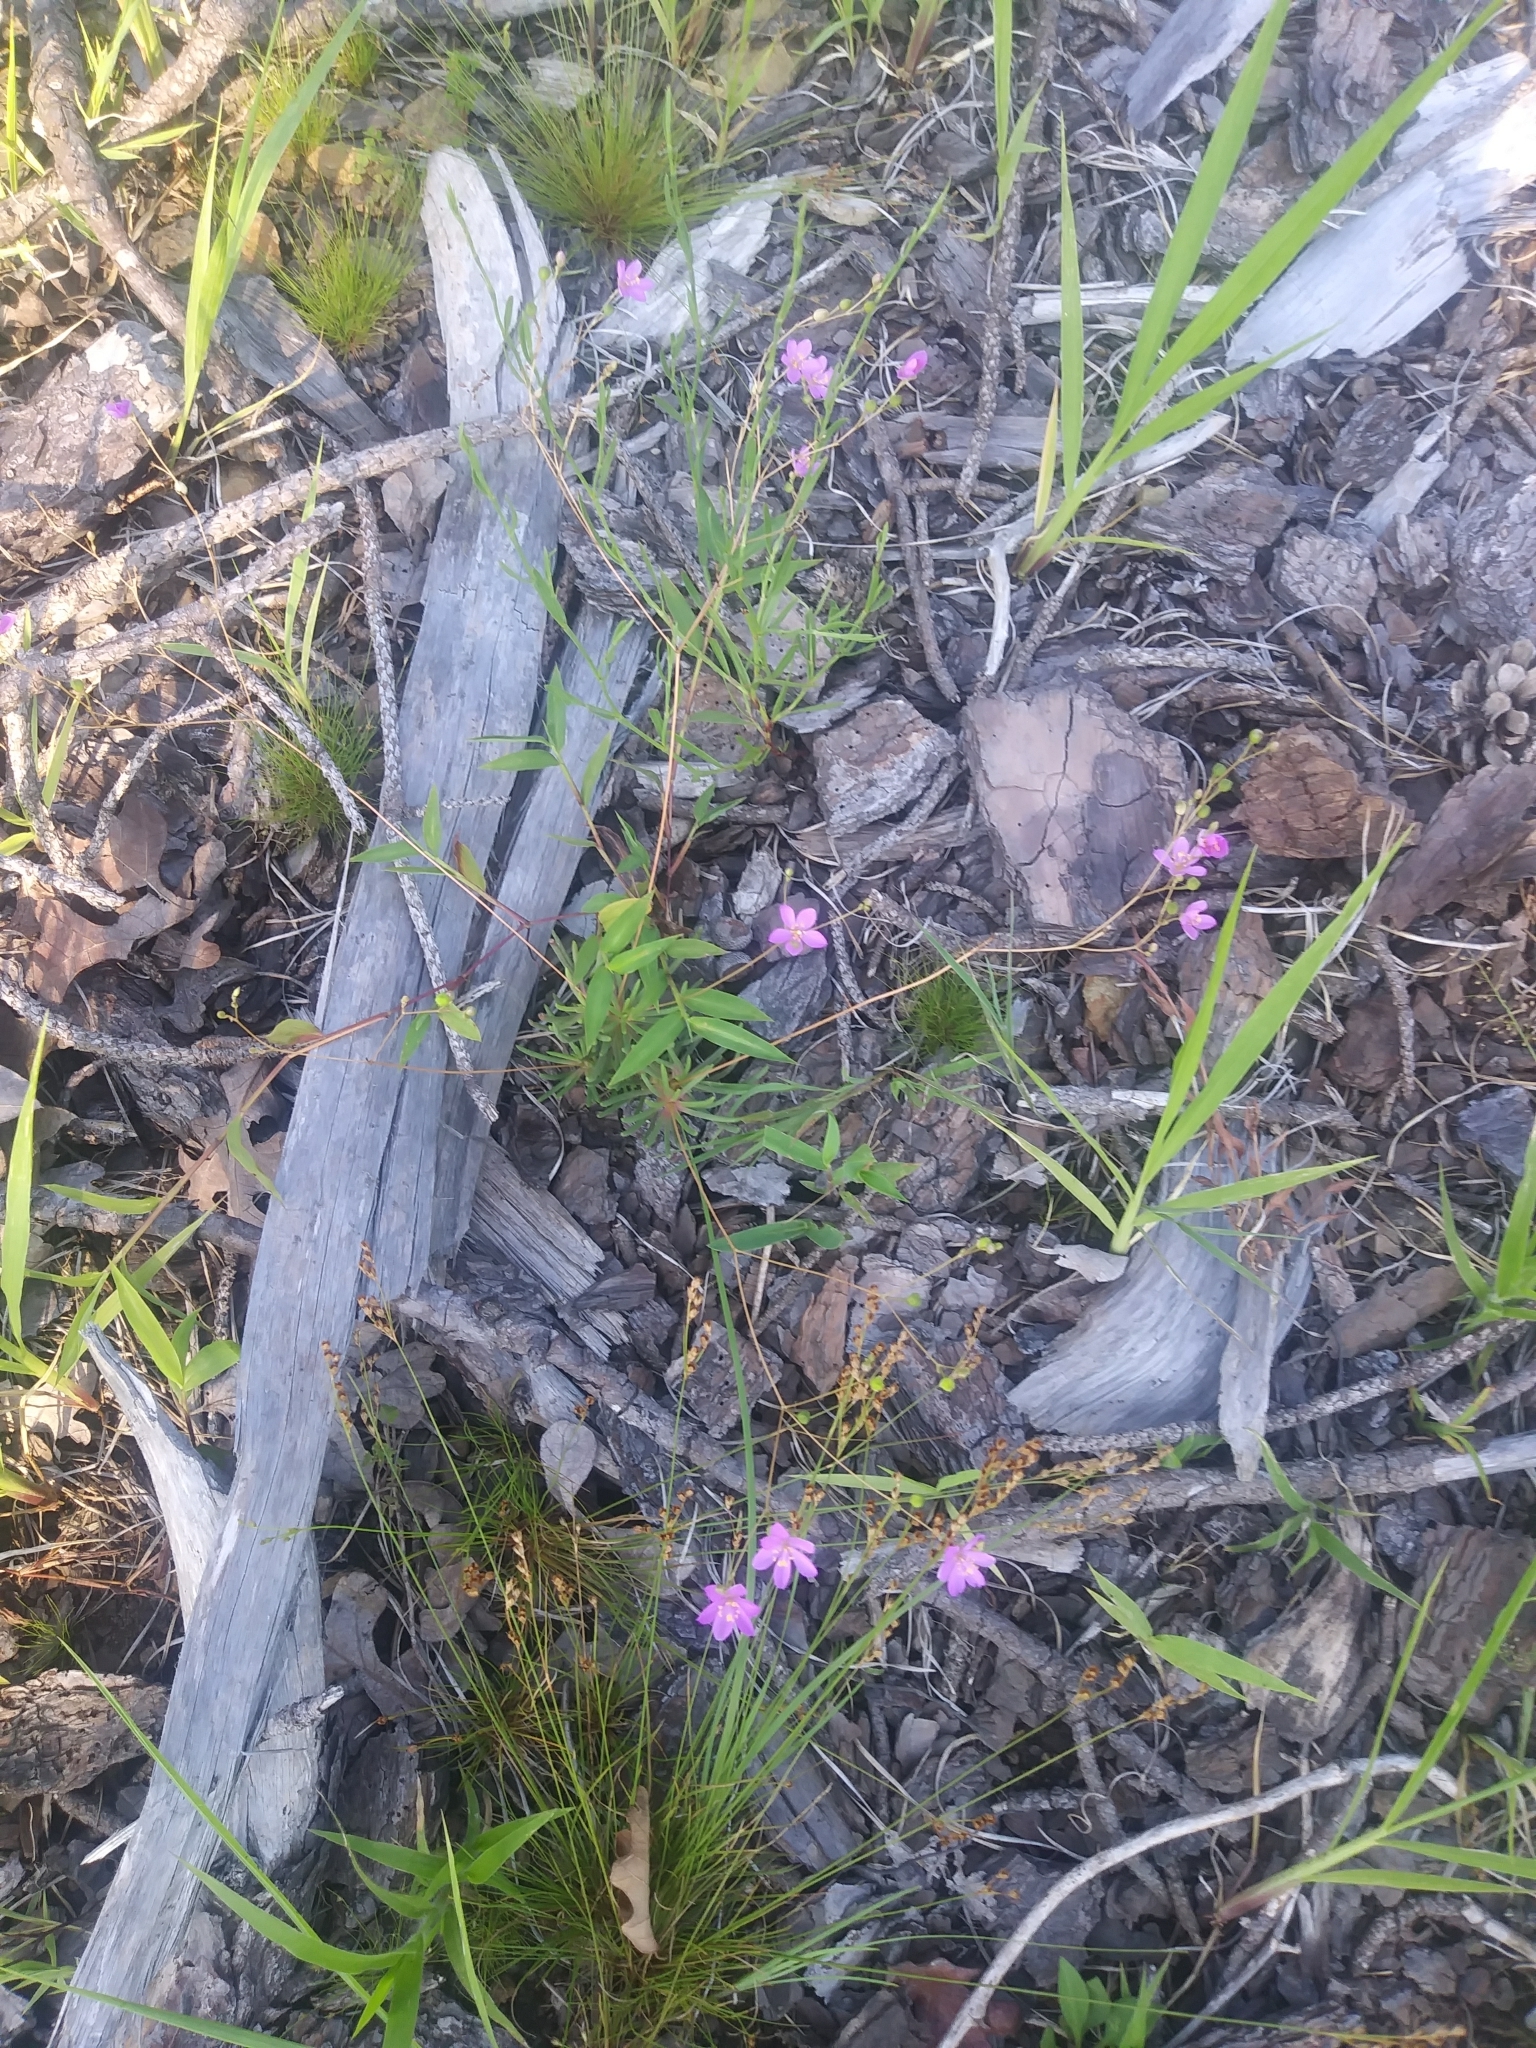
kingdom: Plantae
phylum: Tracheophyta
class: Magnoliopsida
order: Caryophyllales
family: Montiaceae
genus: Phemeranthus
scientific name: Phemeranthus teretifolius
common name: Quill fameflower
